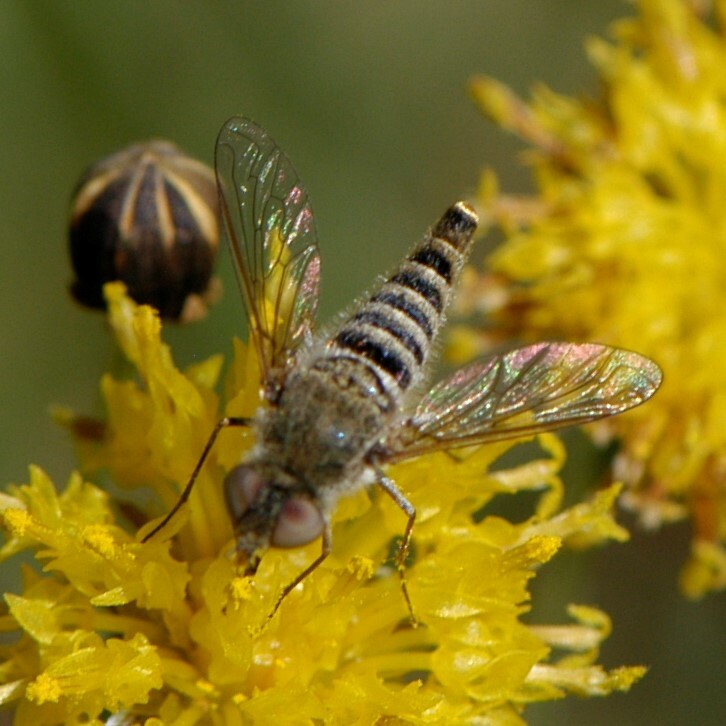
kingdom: Animalia
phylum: Arthropoda
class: Insecta
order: Diptera
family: Bombyliidae
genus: Aphoebantus
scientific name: Aphoebantus
